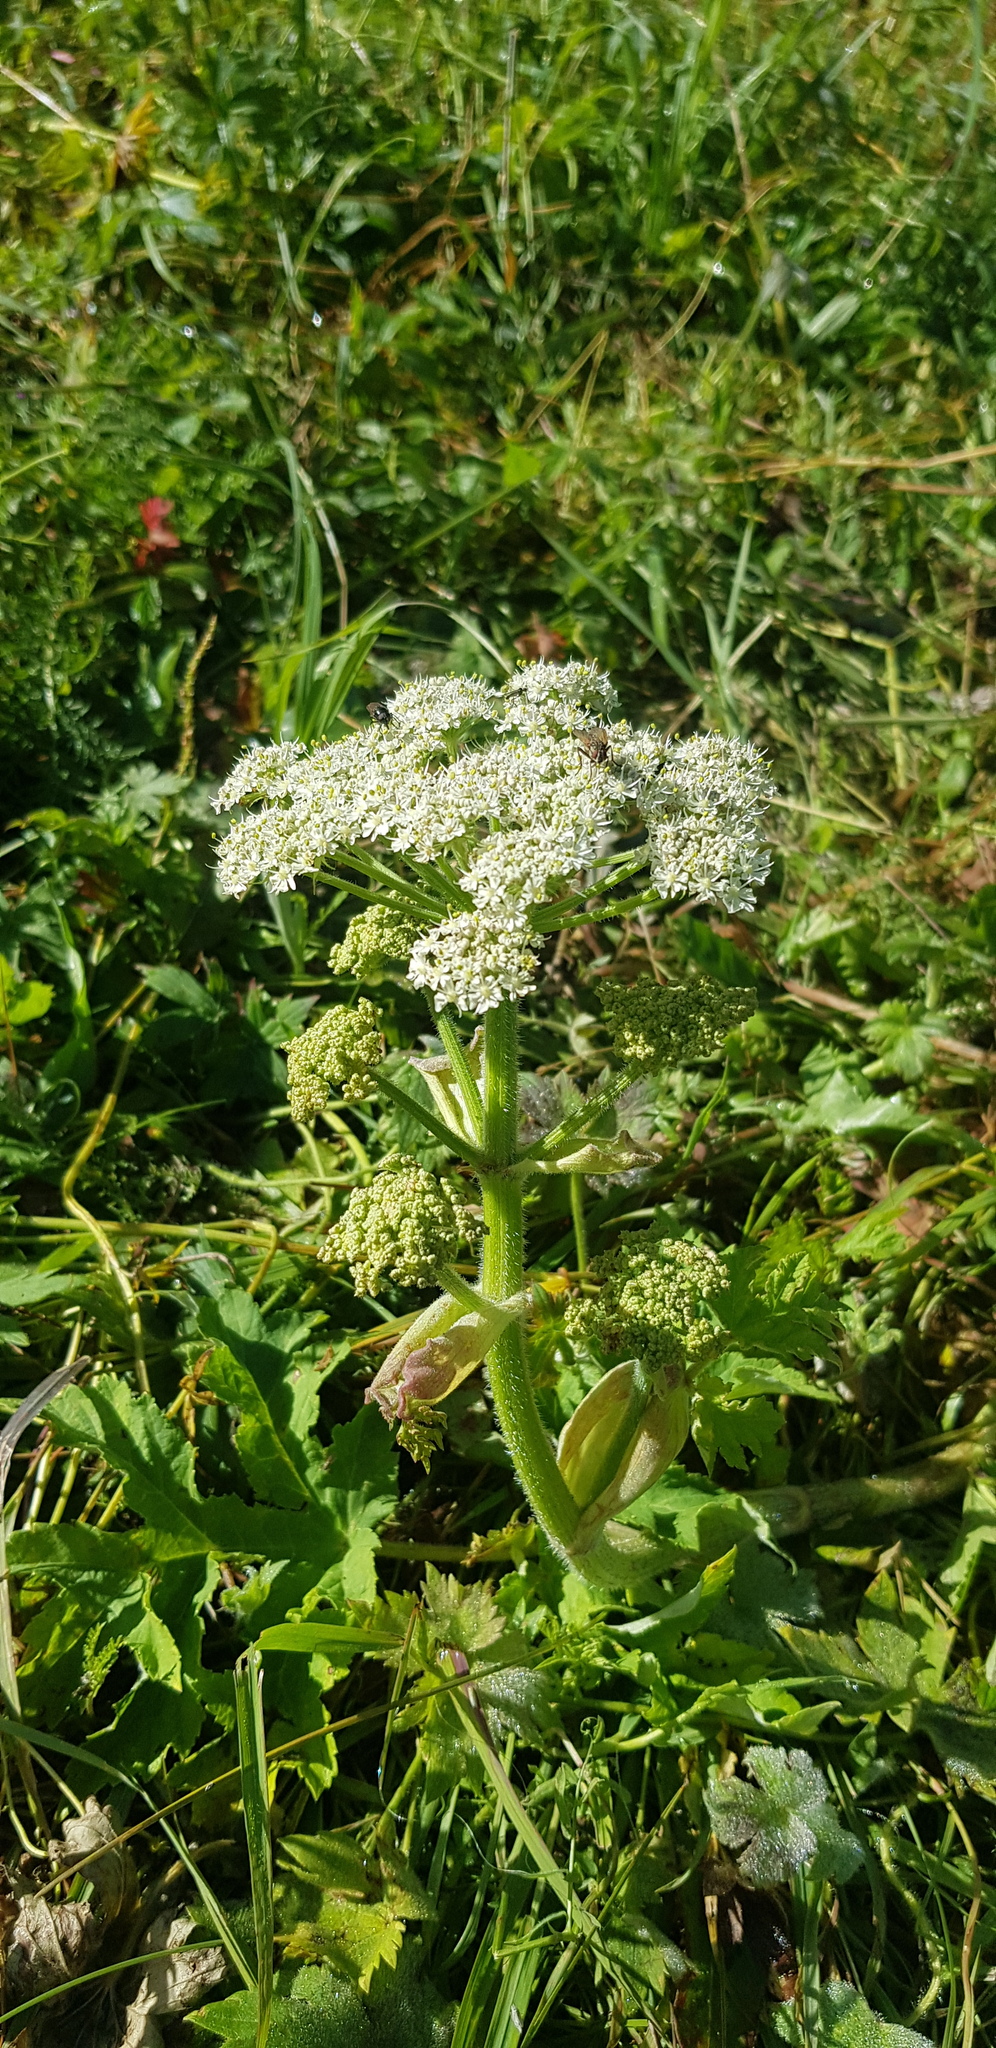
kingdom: Plantae
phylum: Tracheophyta
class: Magnoliopsida
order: Apiales
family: Apiaceae
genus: Heracleum
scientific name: Heracleum dissectum
